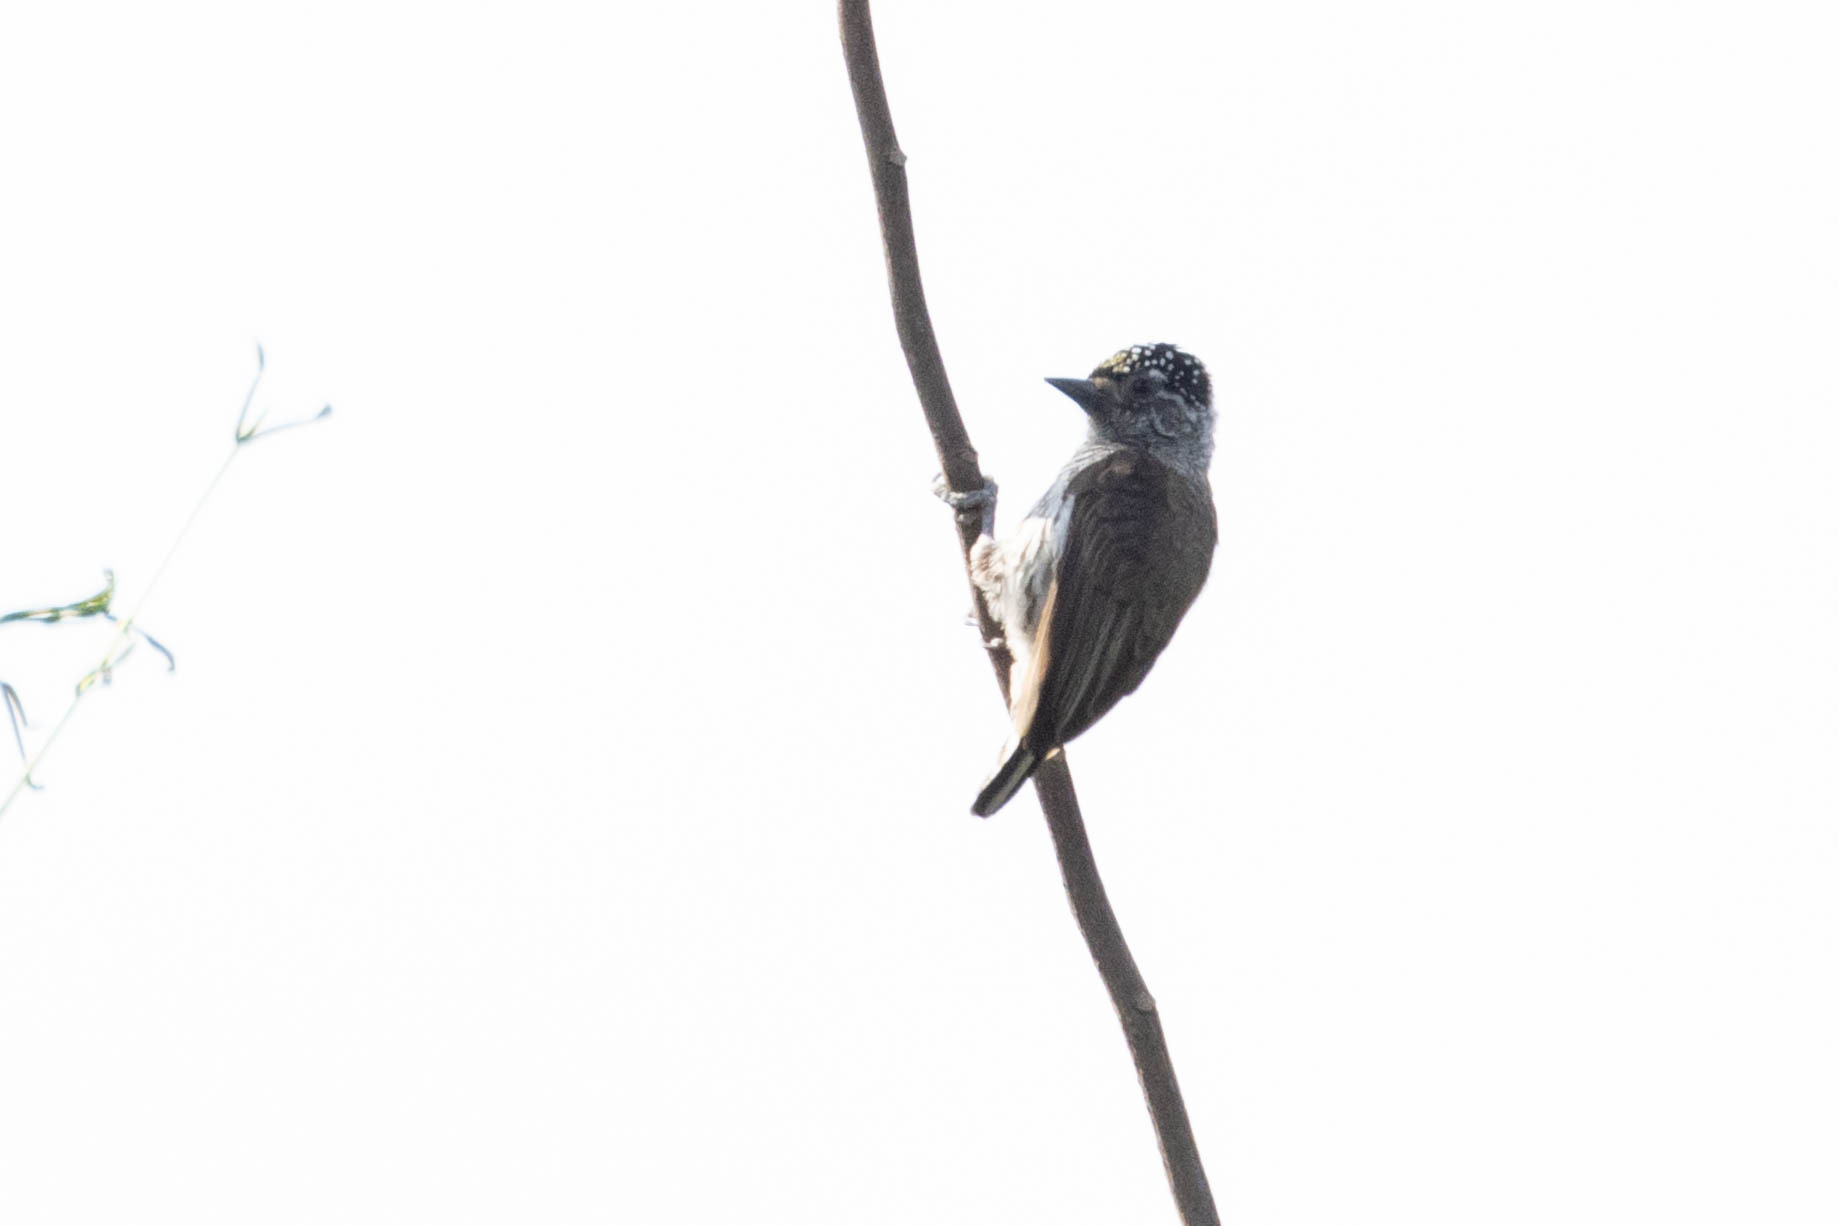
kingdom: Animalia
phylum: Chordata
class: Aves
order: Piciformes
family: Picidae
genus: Picumnus
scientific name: Picumnus sclateri
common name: Ecuadorian piculet
